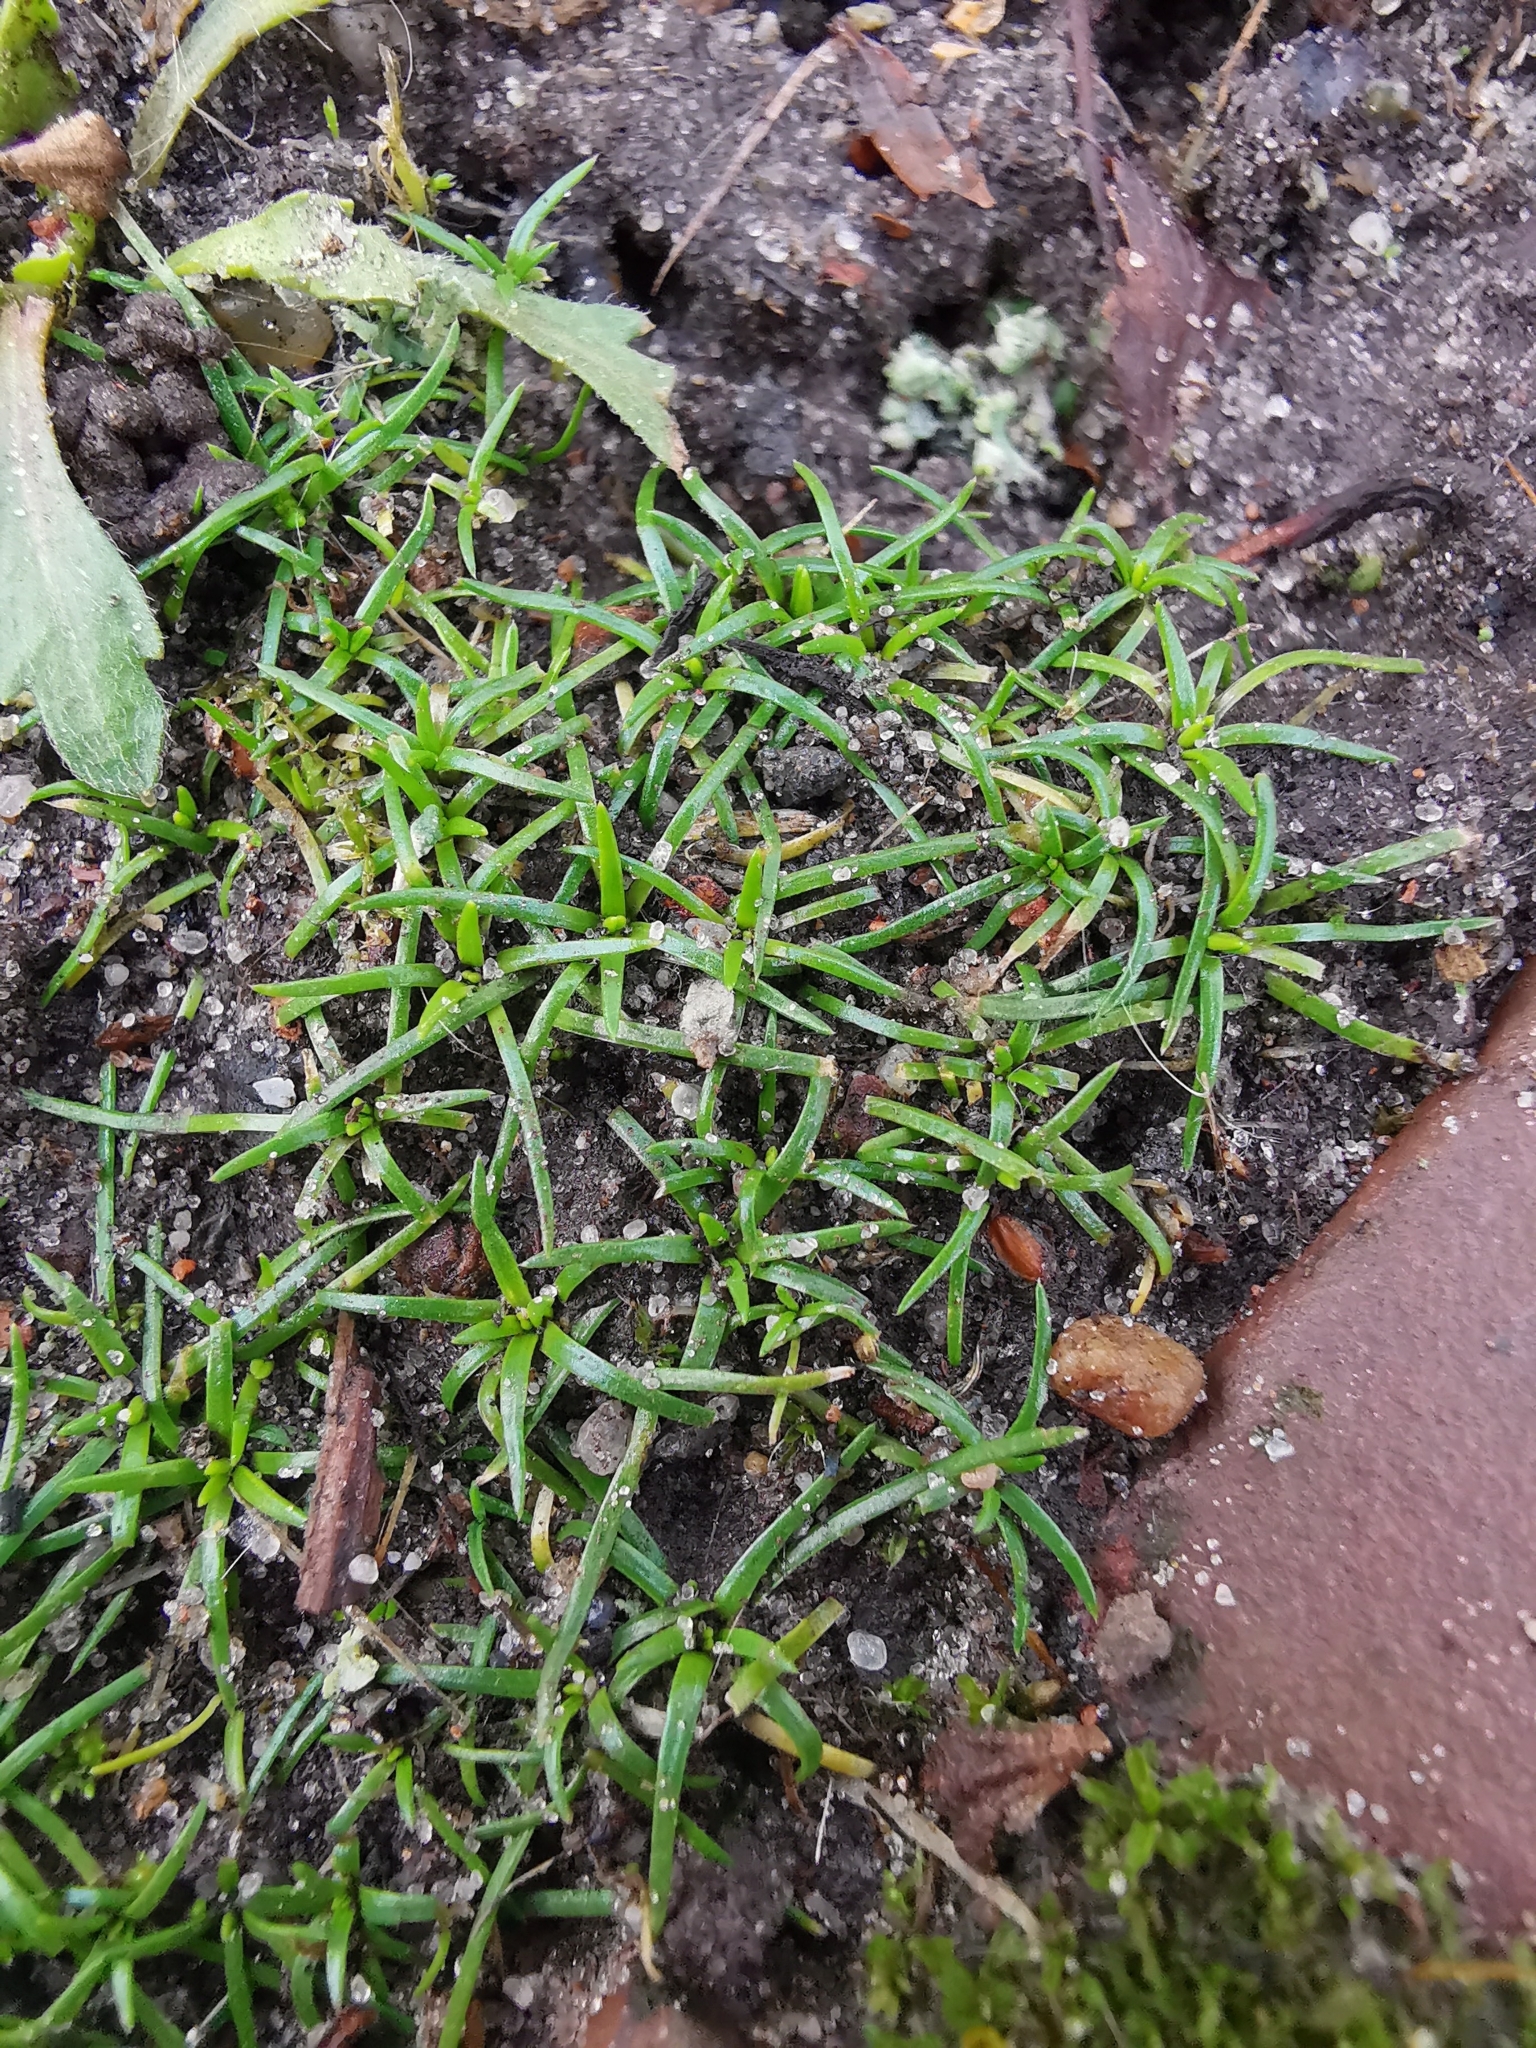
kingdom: Plantae
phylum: Tracheophyta
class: Magnoliopsida
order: Caryophyllales
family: Caryophyllaceae
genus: Sagina
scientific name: Sagina procumbens
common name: Procumbent pearlwort
